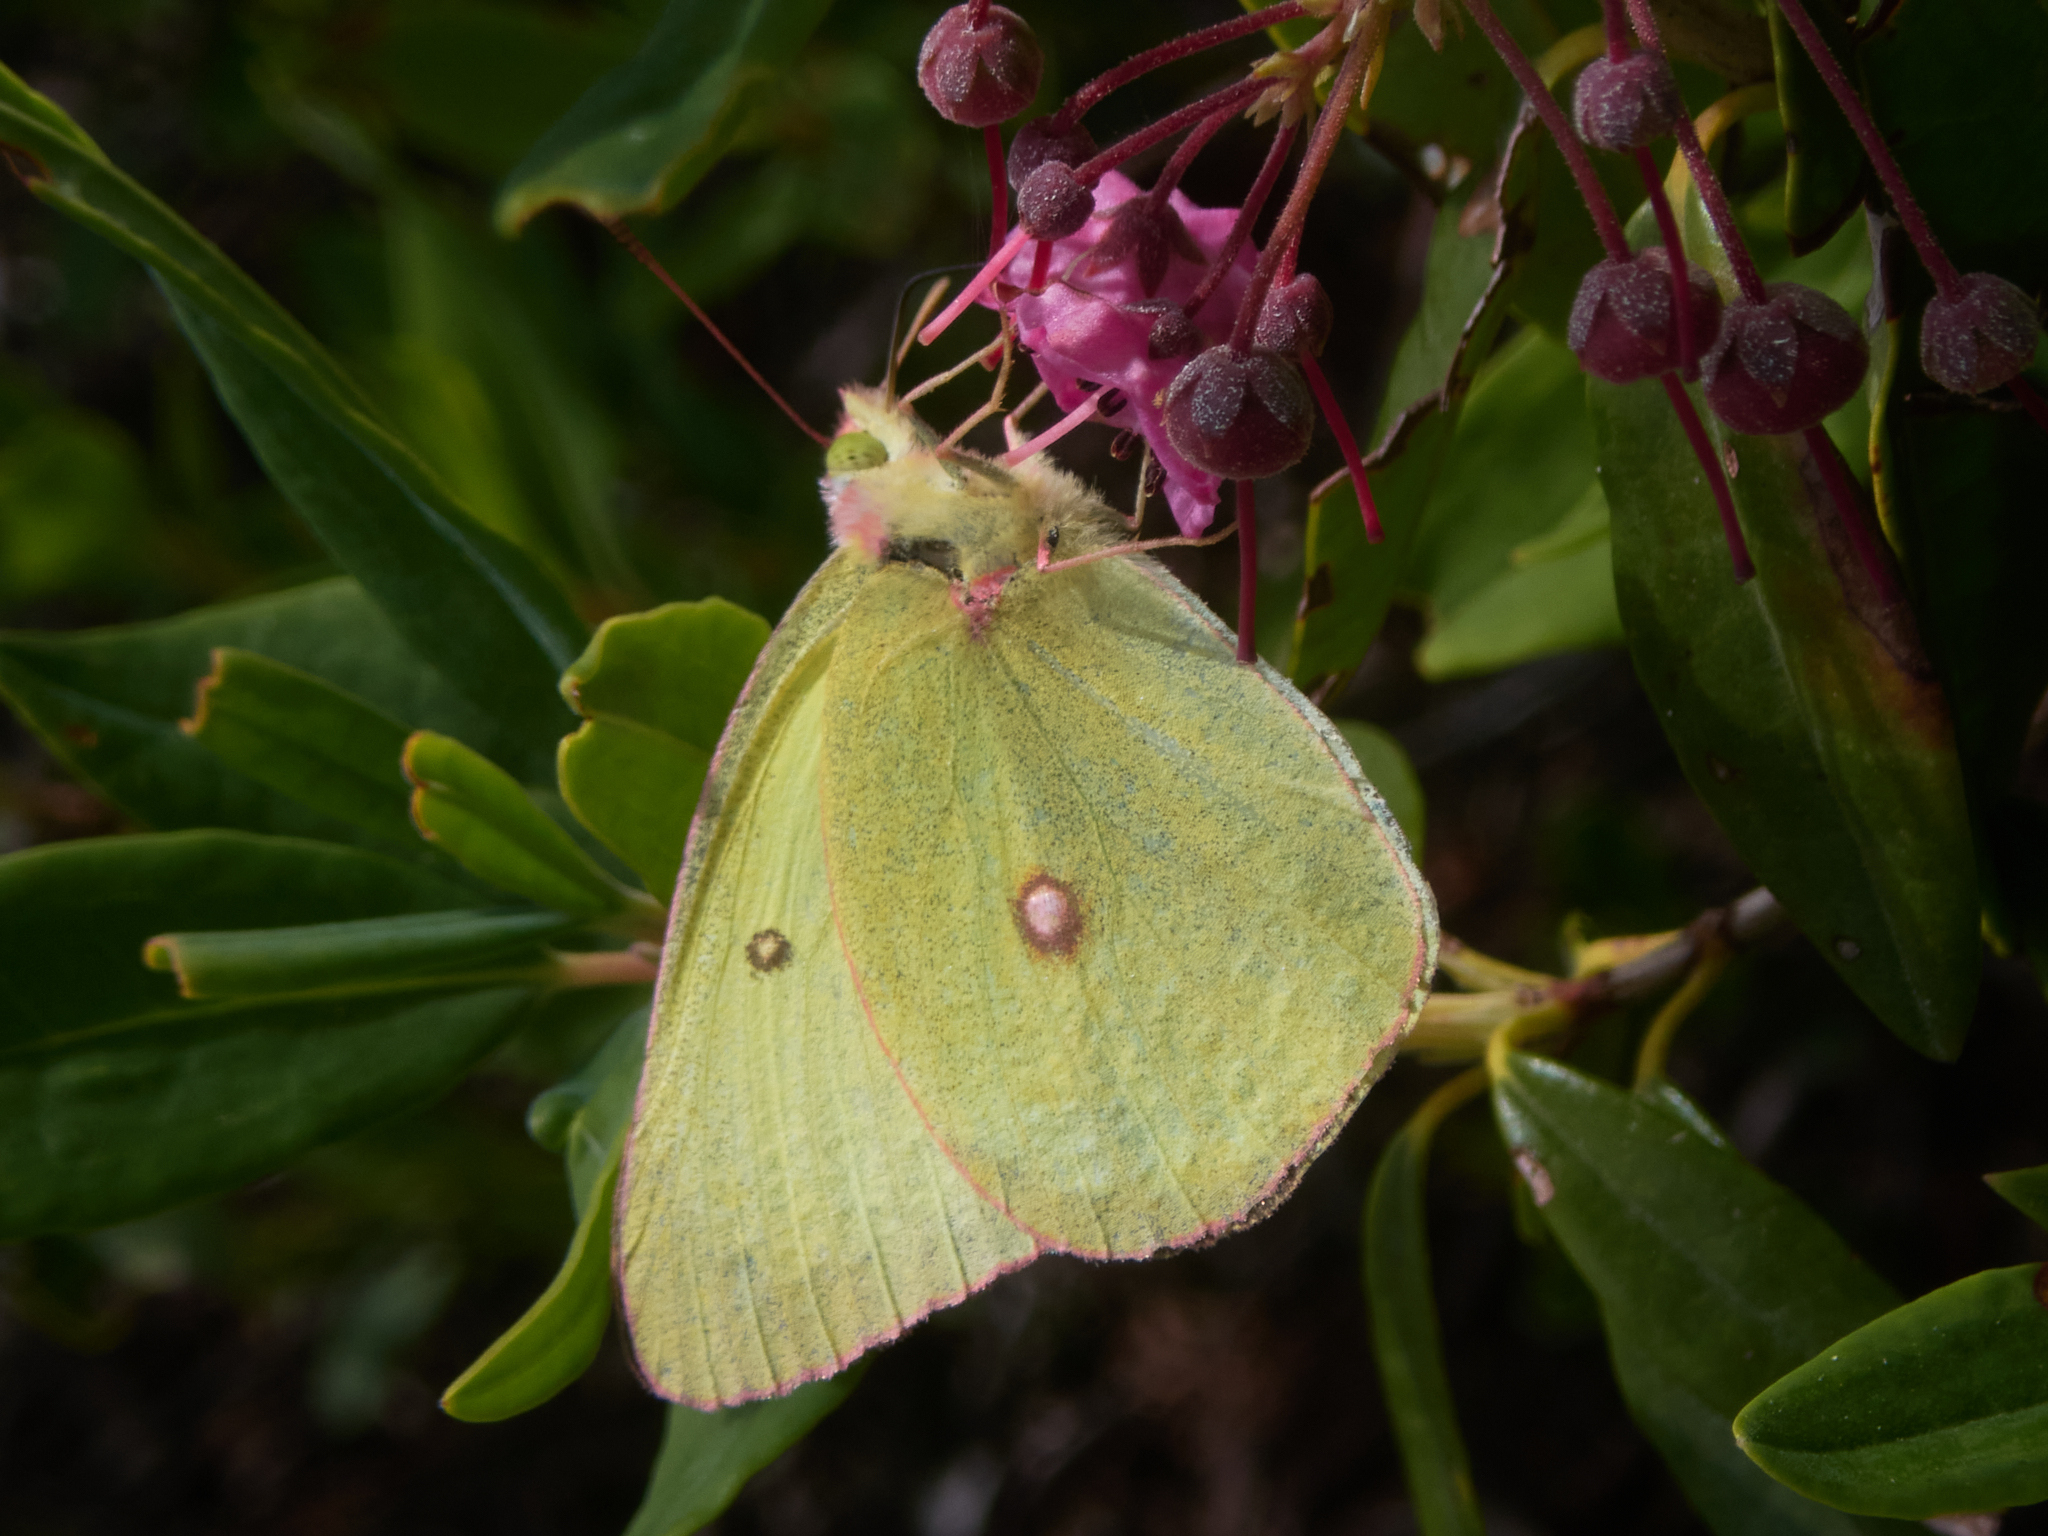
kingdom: Animalia
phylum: Arthropoda
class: Insecta
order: Lepidoptera
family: Pieridae
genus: Colias
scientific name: Colias interior
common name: Pink-edged sulphur
